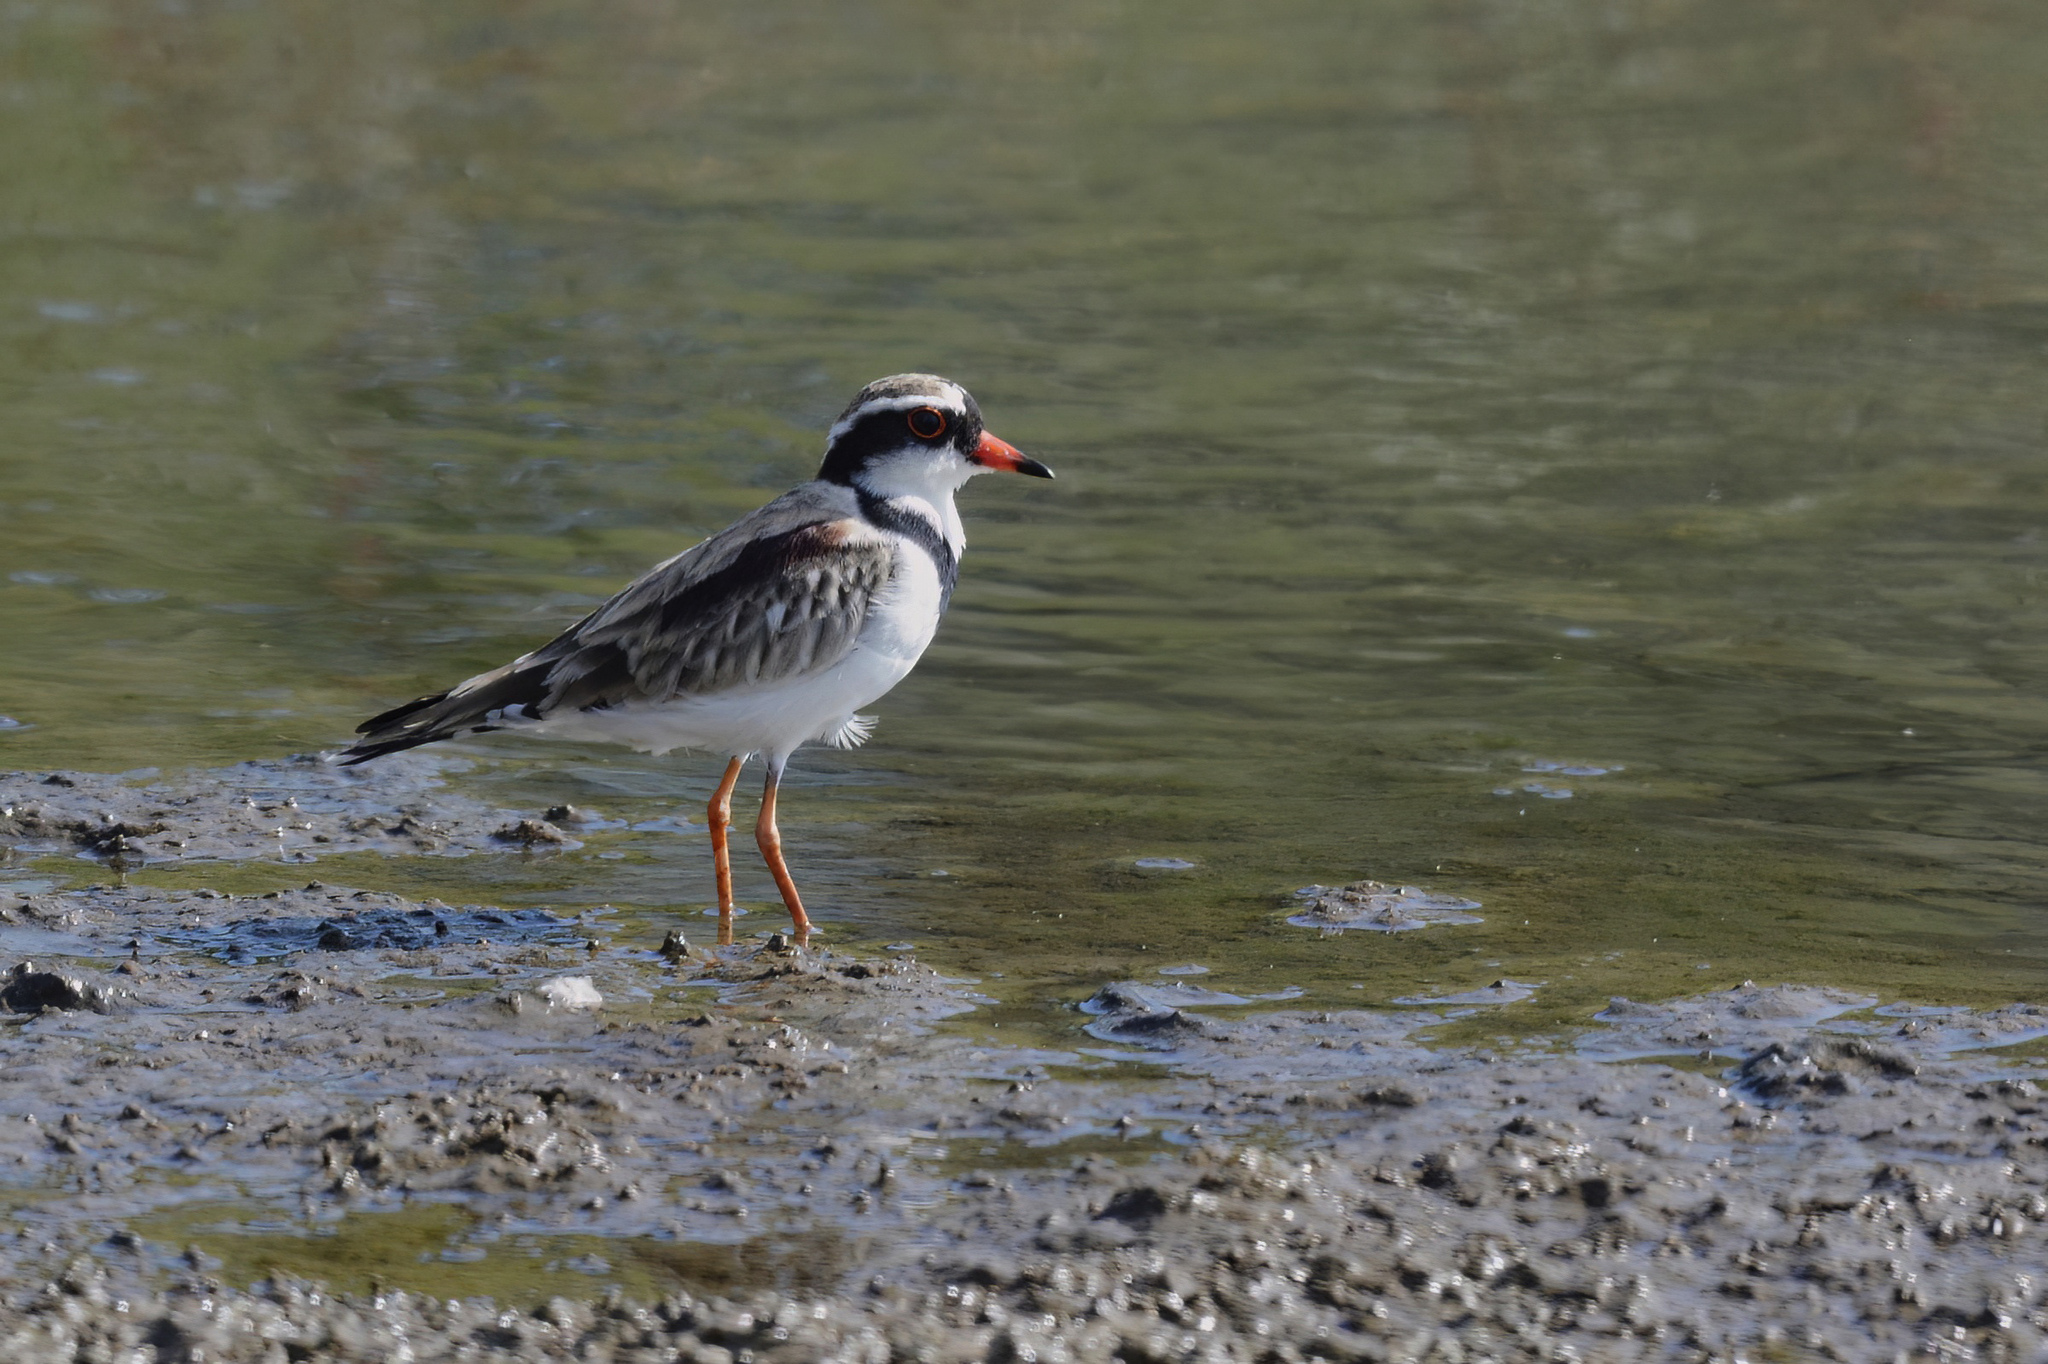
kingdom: Animalia
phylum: Chordata
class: Aves
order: Charadriiformes
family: Charadriidae
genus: Elseyornis
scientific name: Elseyornis melanops
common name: Black-fronted dotterel
